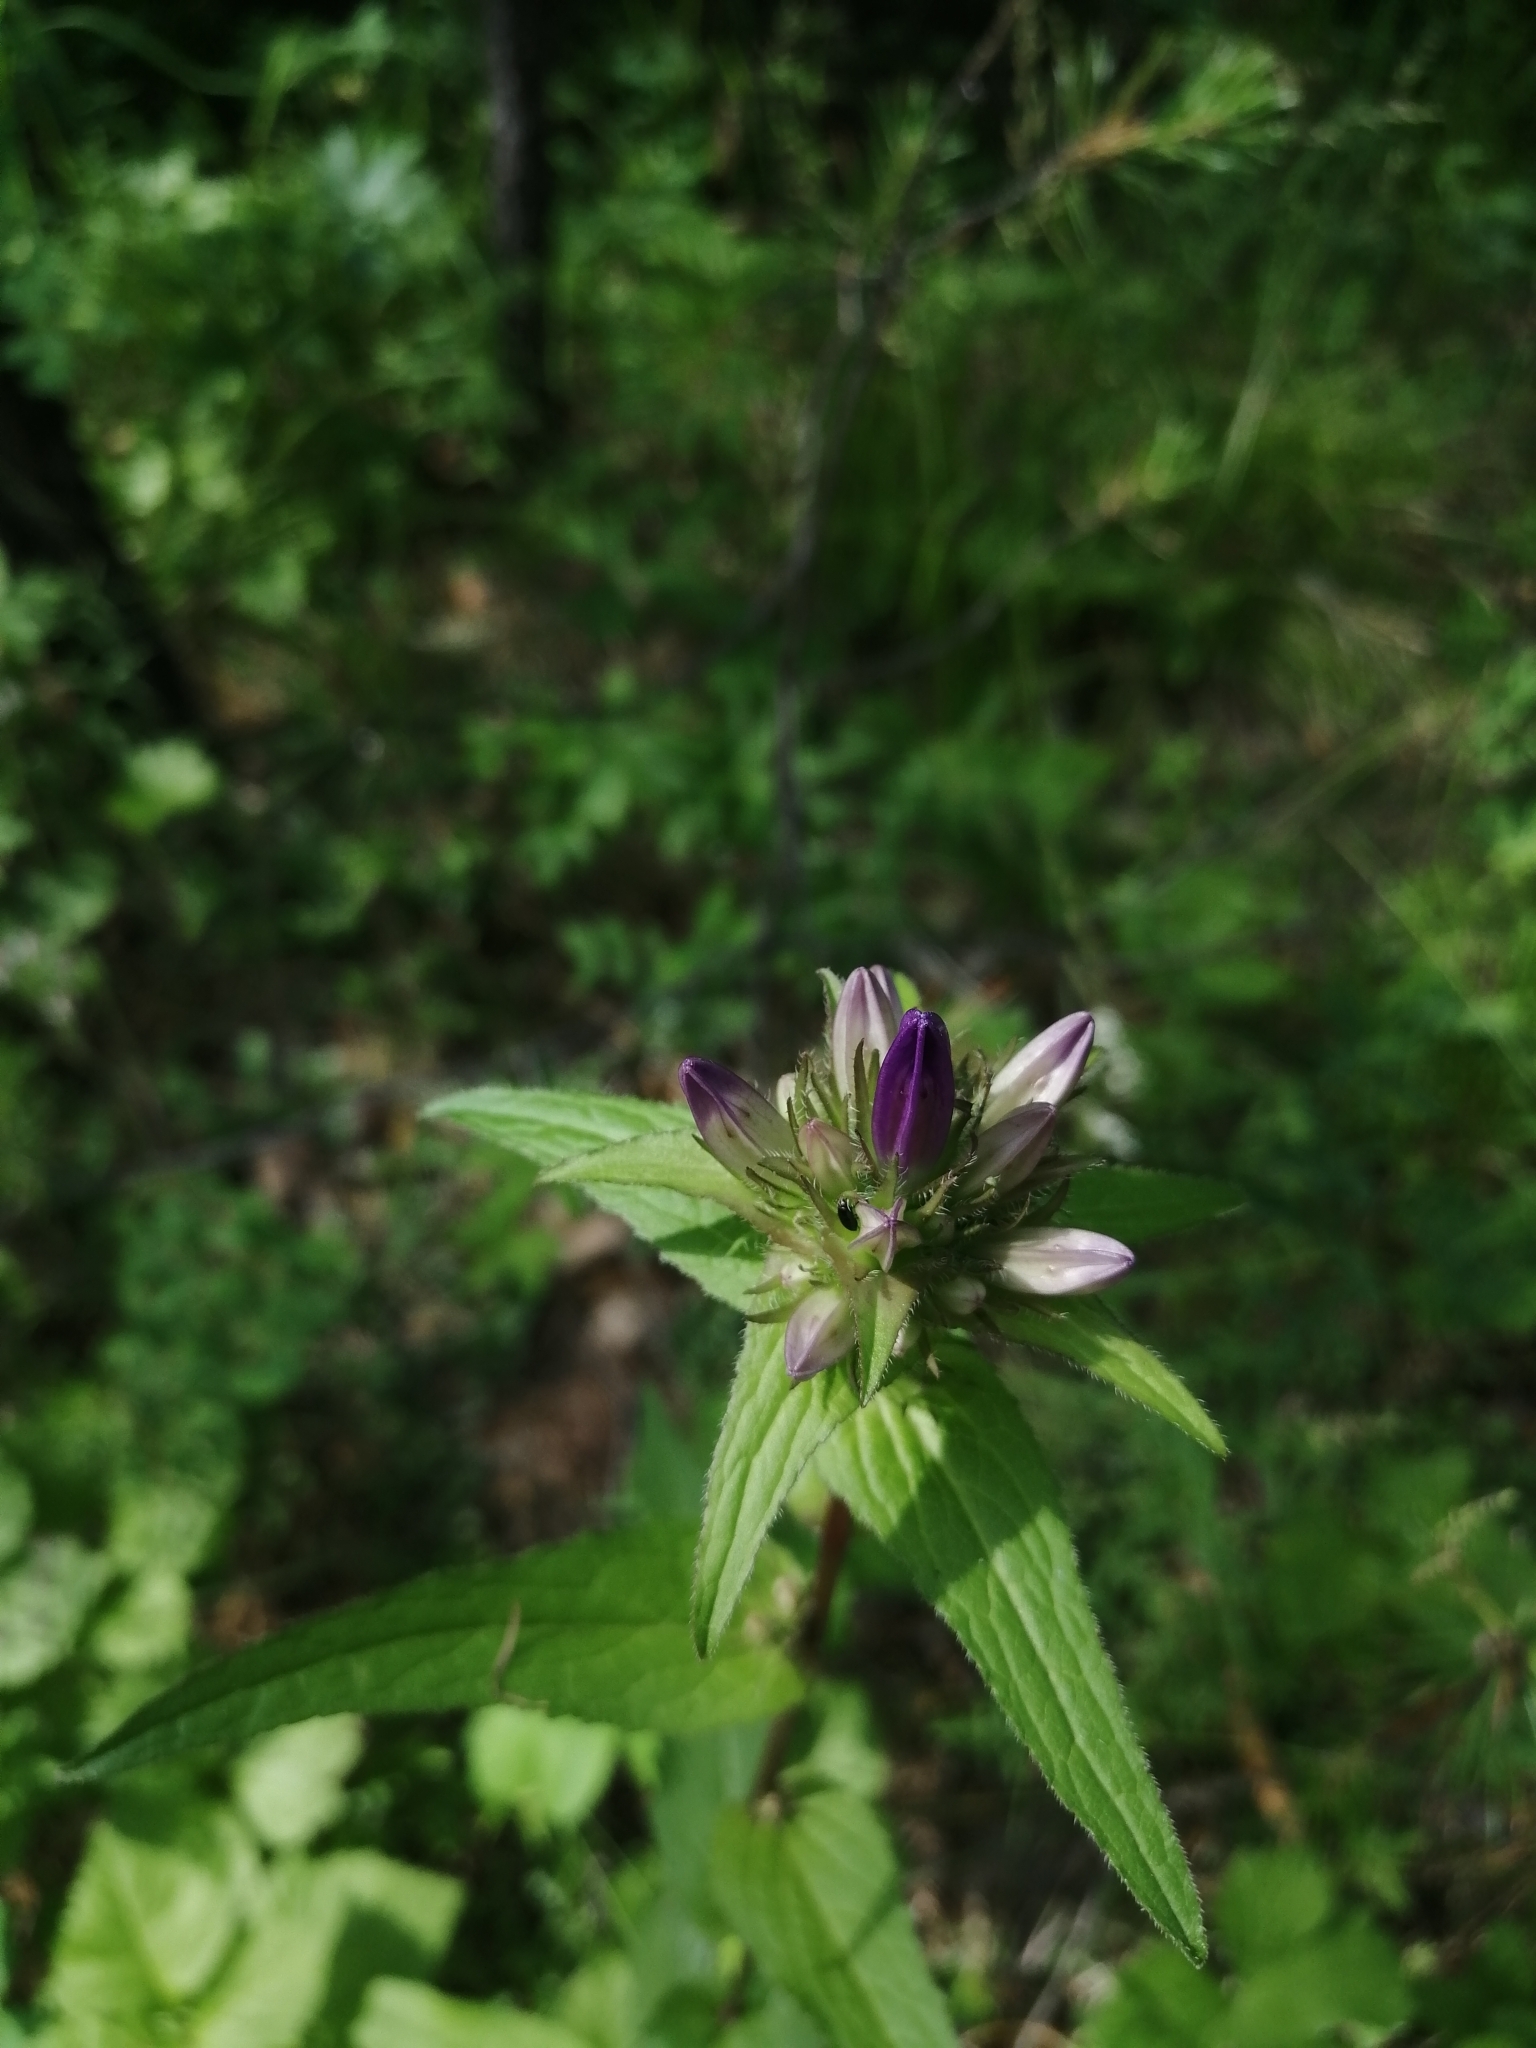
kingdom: Plantae
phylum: Tracheophyta
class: Magnoliopsida
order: Asterales
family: Campanulaceae
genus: Campanula
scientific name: Campanula glomerata
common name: Clustered bellflower
